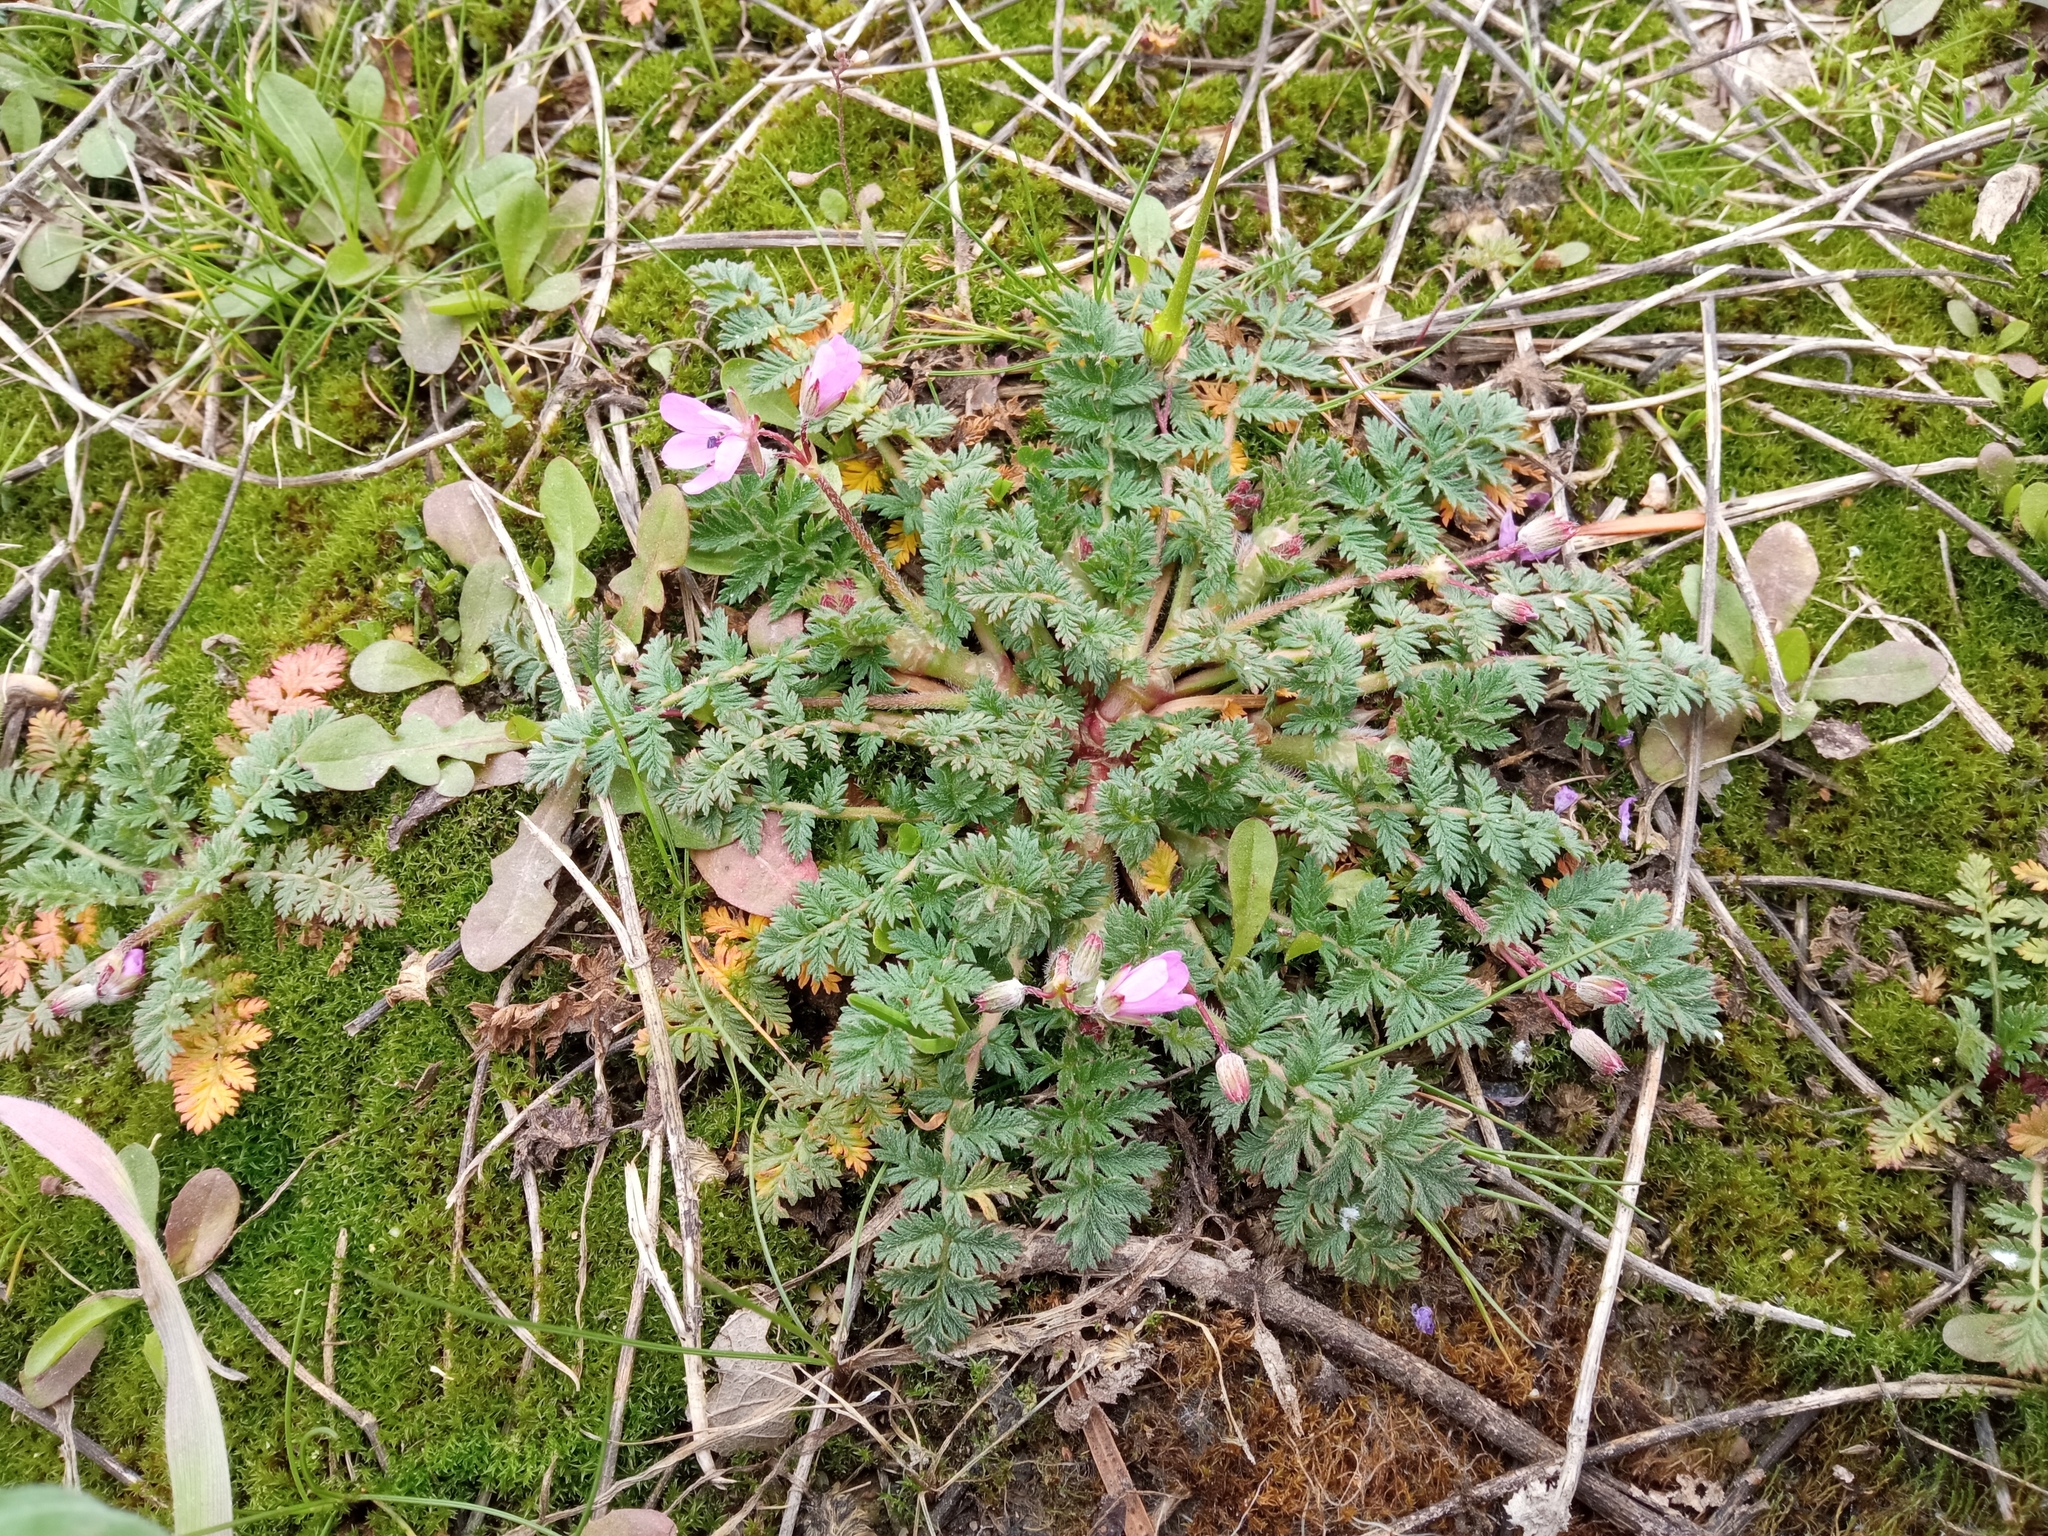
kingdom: Plantae
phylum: Tracheophyta
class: Magnoliopsida
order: Geraniales
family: Geraniaceae
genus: Erodium
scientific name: Erodium cicutarium
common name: Common stork's-bill
